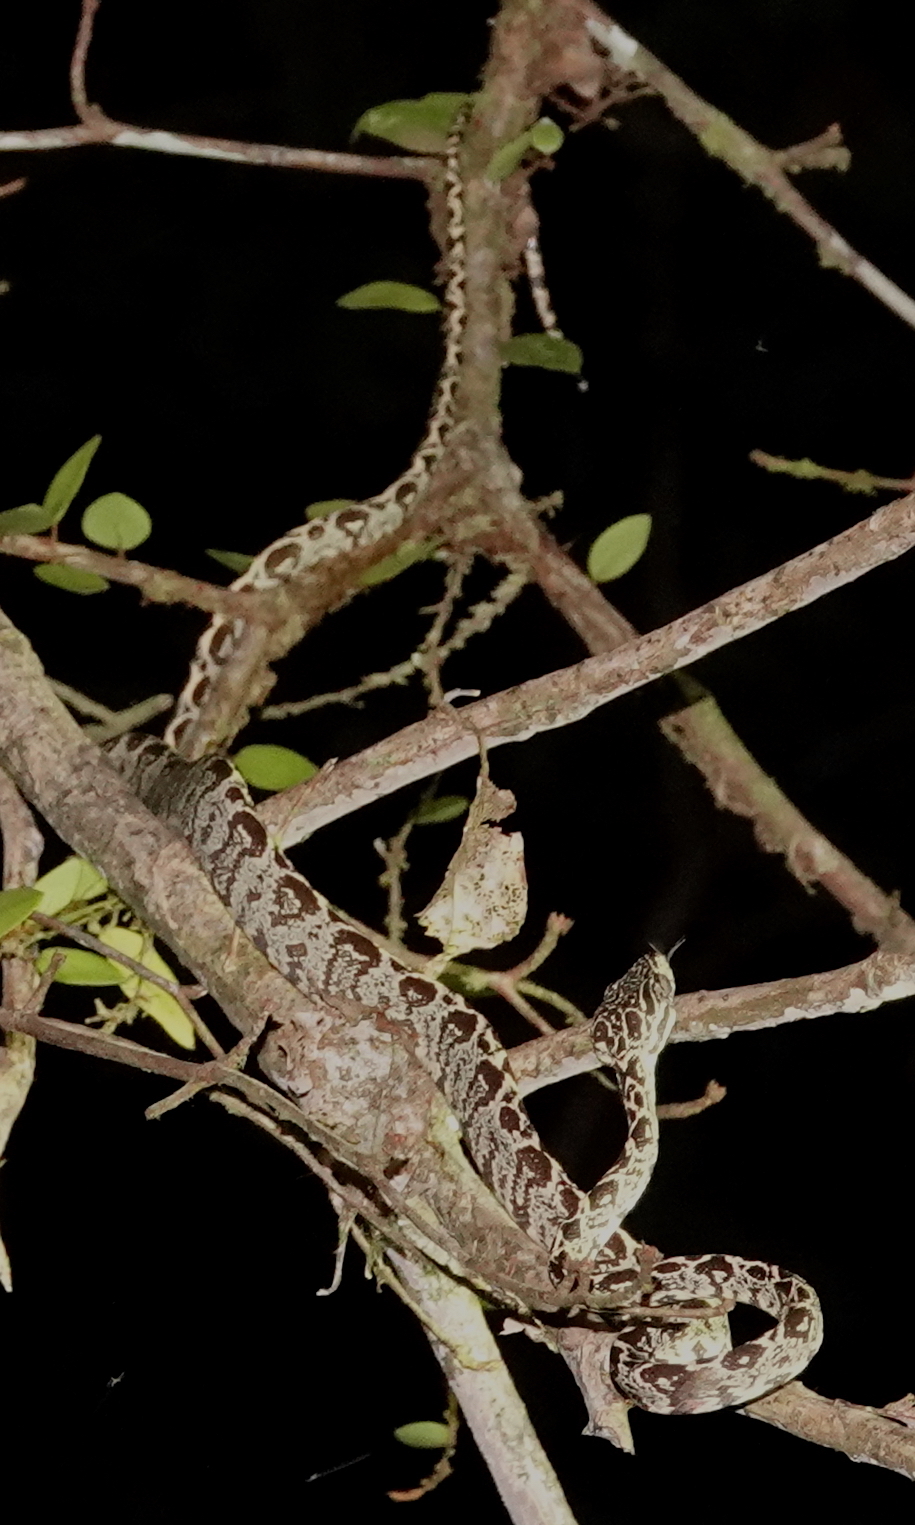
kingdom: Animalia
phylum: Chordata
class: Squamata
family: Boidae
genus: Corallus
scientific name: Corallus hortulana
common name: Garden tree boa
